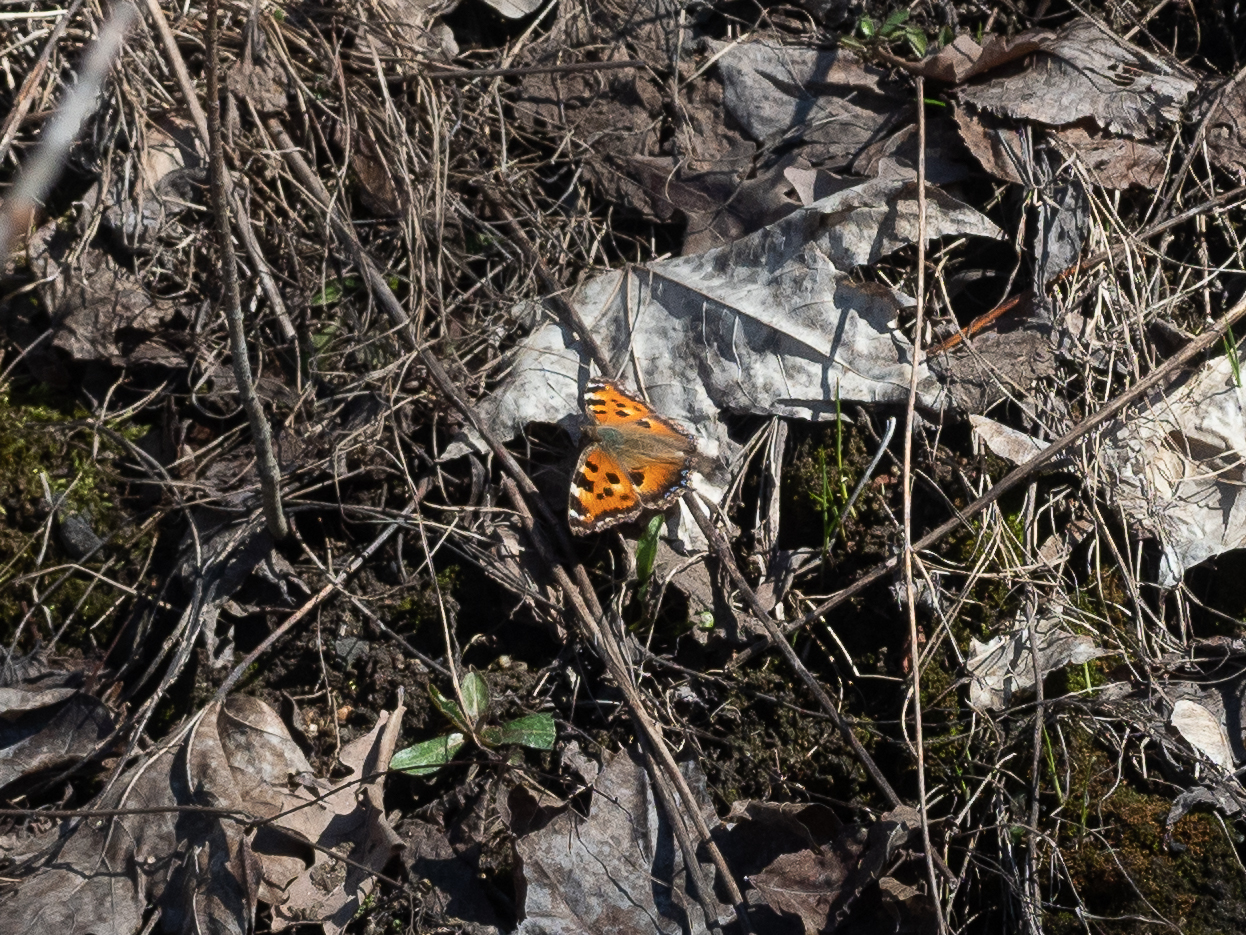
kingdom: Animalia
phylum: Arthropoda
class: Insecta
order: Lepidoptera
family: Nymphalidae
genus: Nymphalis
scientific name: Nymphalis xanthomelas
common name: Scarce tortoiseshell
